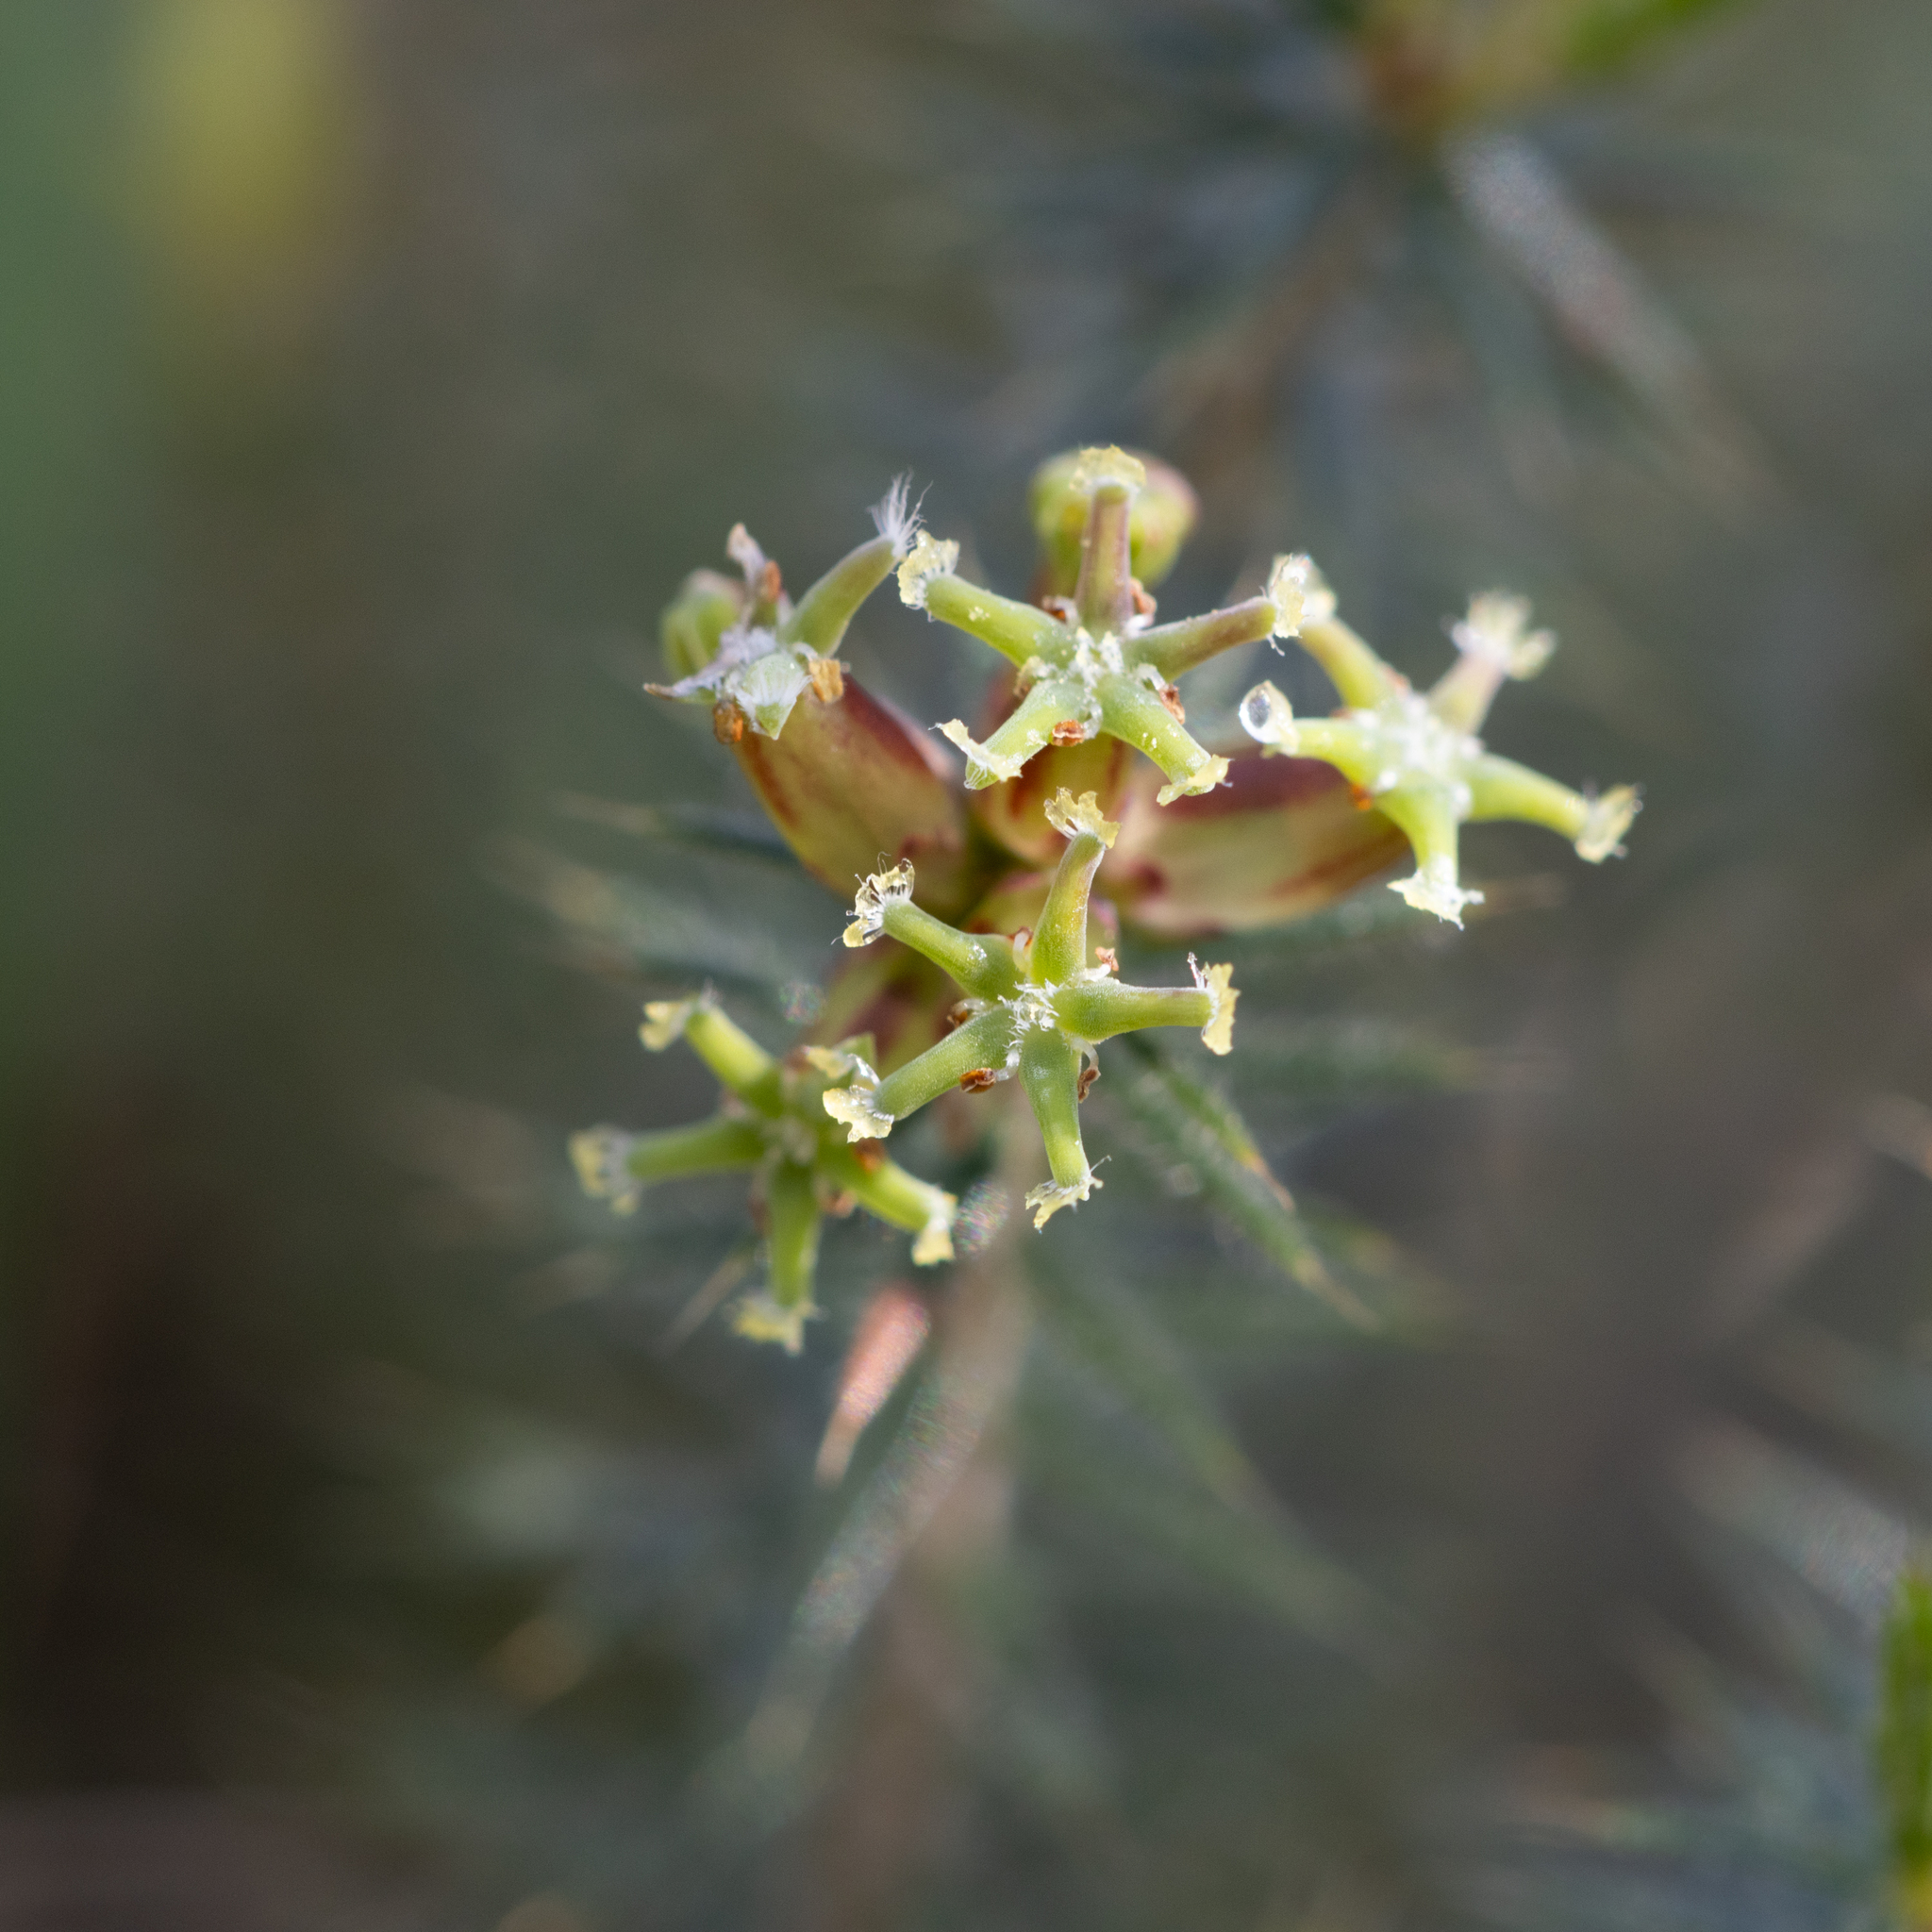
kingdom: Plantae
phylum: Tracheophyta
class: Magnoliopsida
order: Ericales
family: Ericaceae
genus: Acrotriche
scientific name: Acrotriche serrulata
